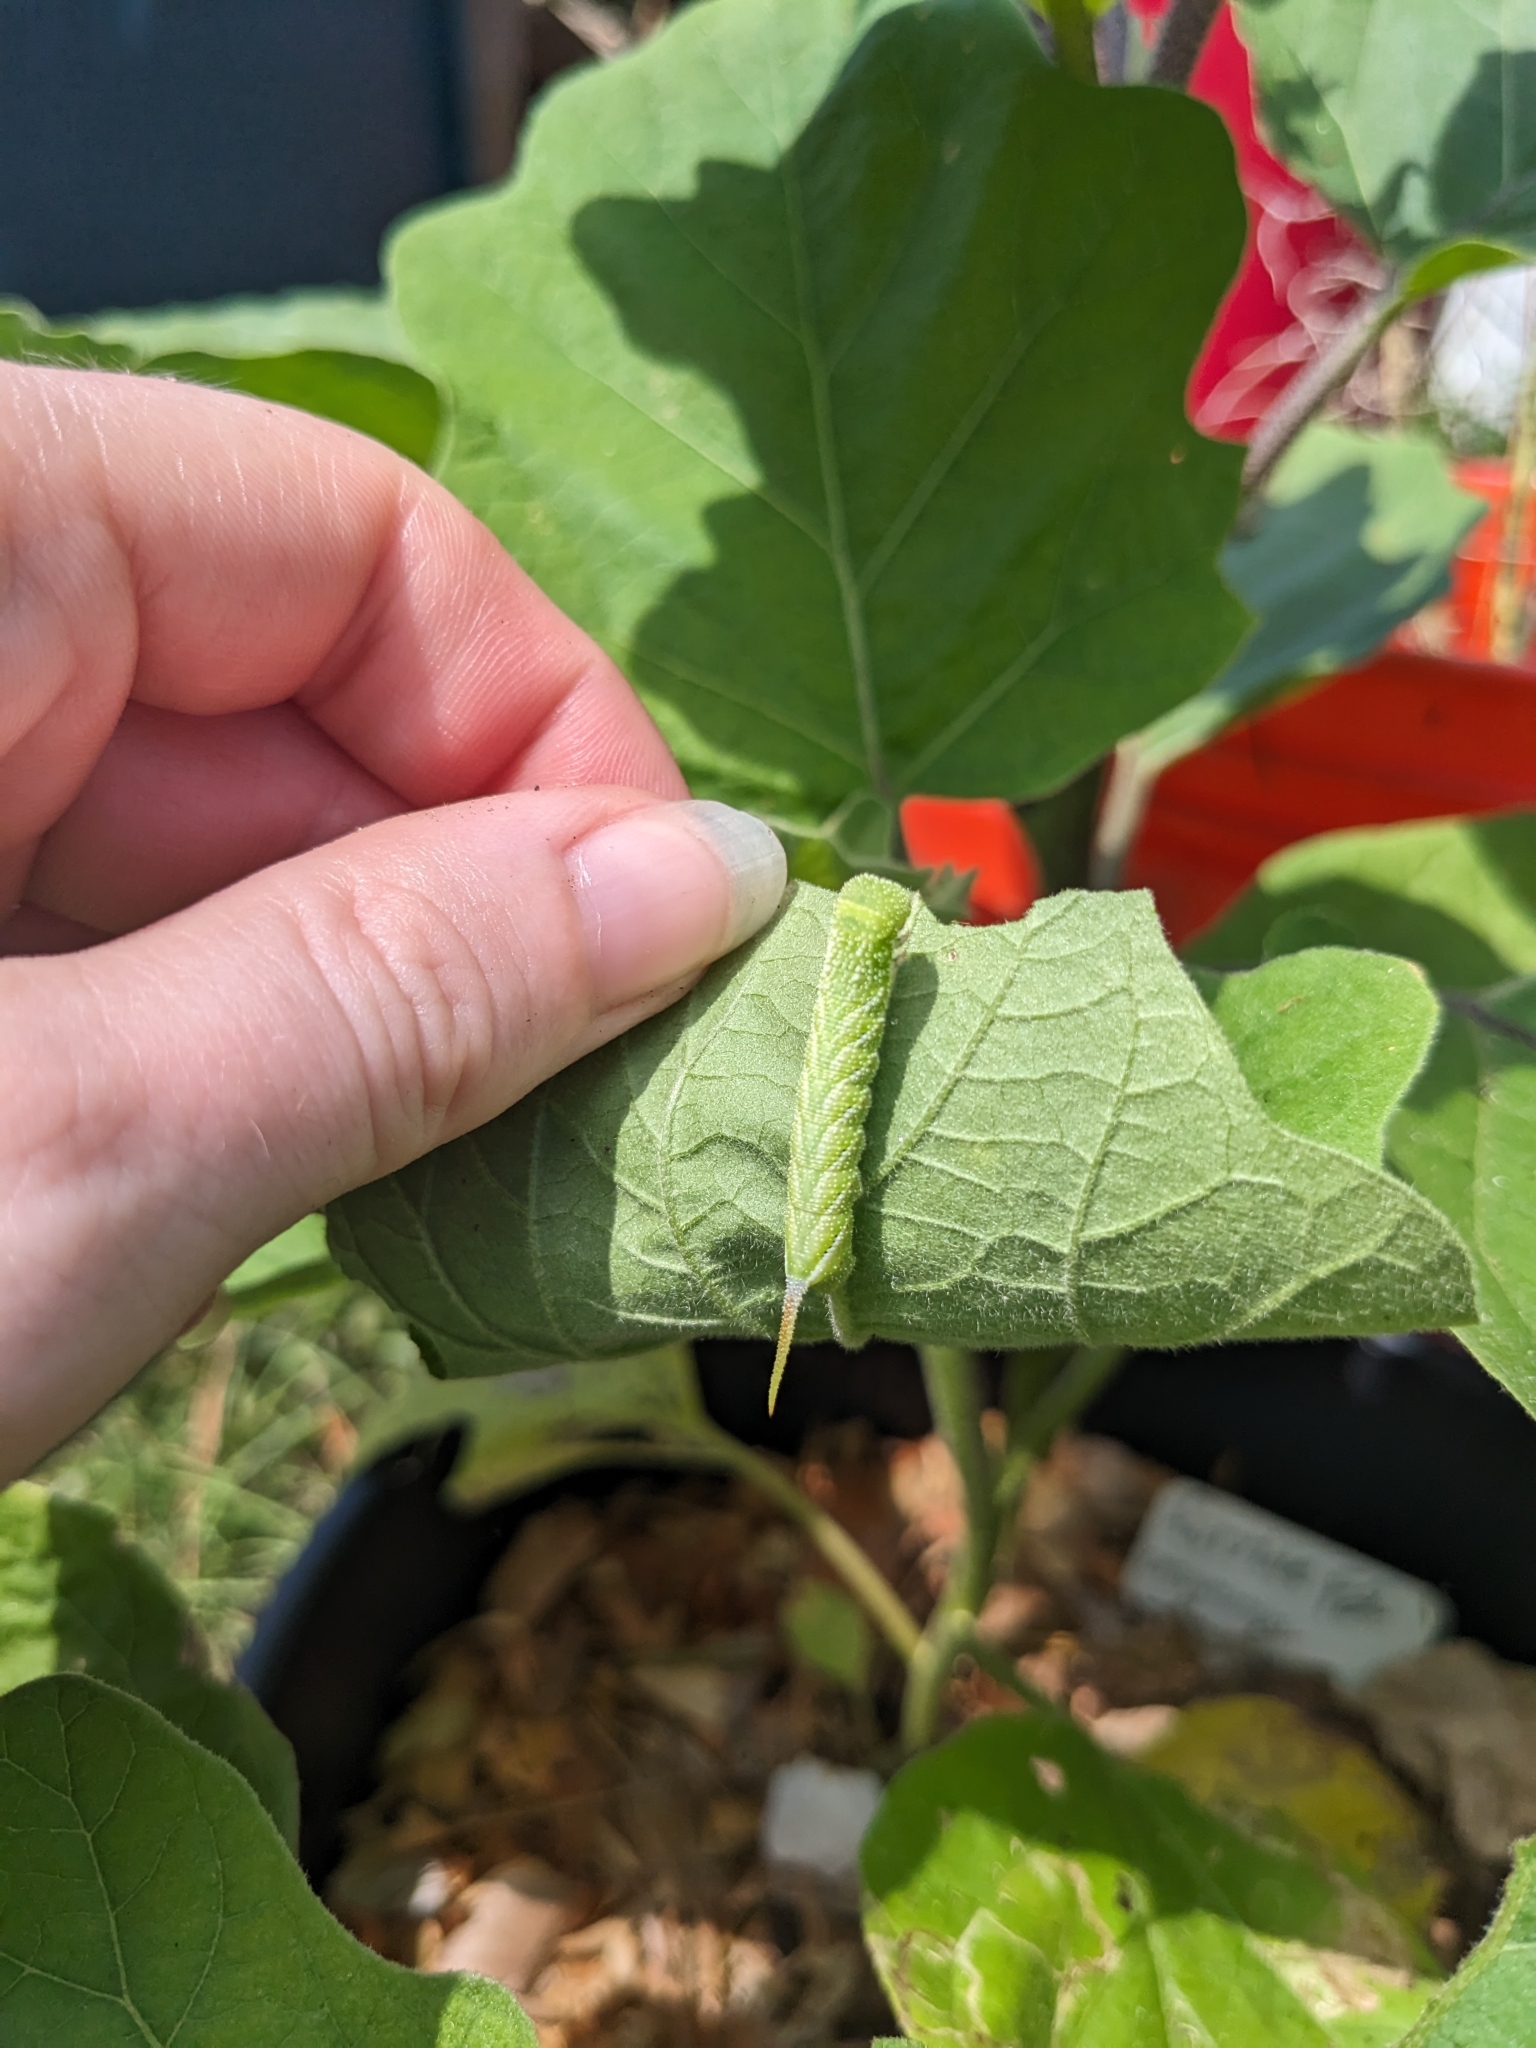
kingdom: Animalia
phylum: Arthropoda
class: Insecta
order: Lepidoptera
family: Sphingidae
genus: Manduca
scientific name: Manduca sexta
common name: Carolina sphinx
